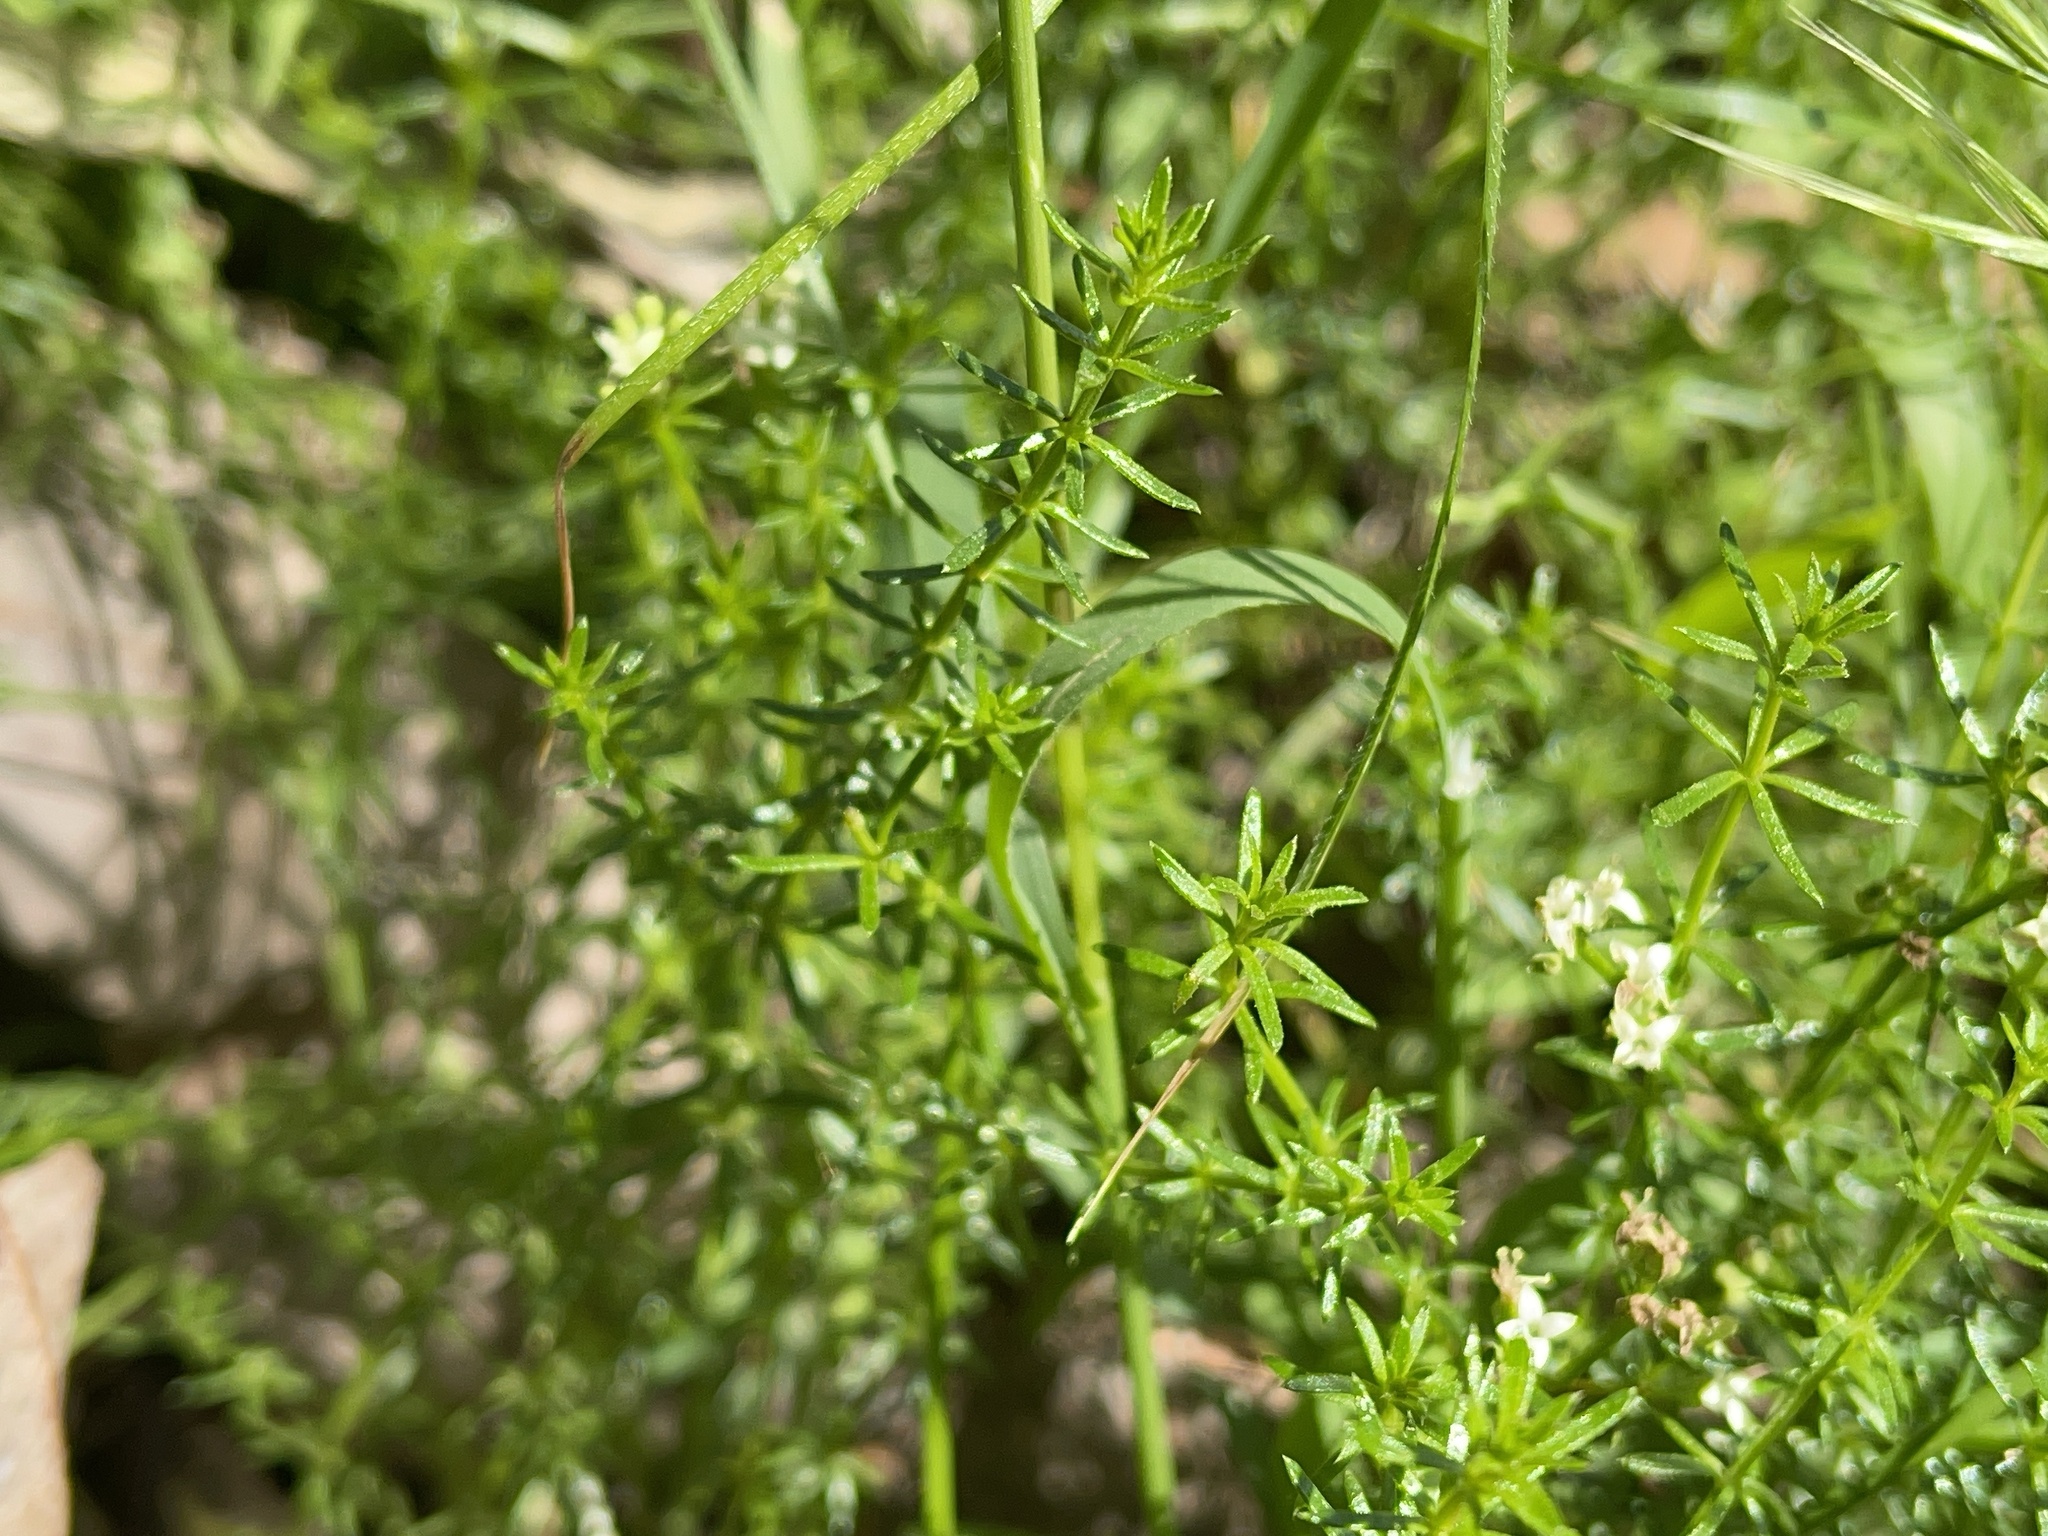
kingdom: Plantae
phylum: Tracheophyta
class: Magnoliopsida
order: Gentianales
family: Rubiaceae
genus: Asperula
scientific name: Asperula conferta
